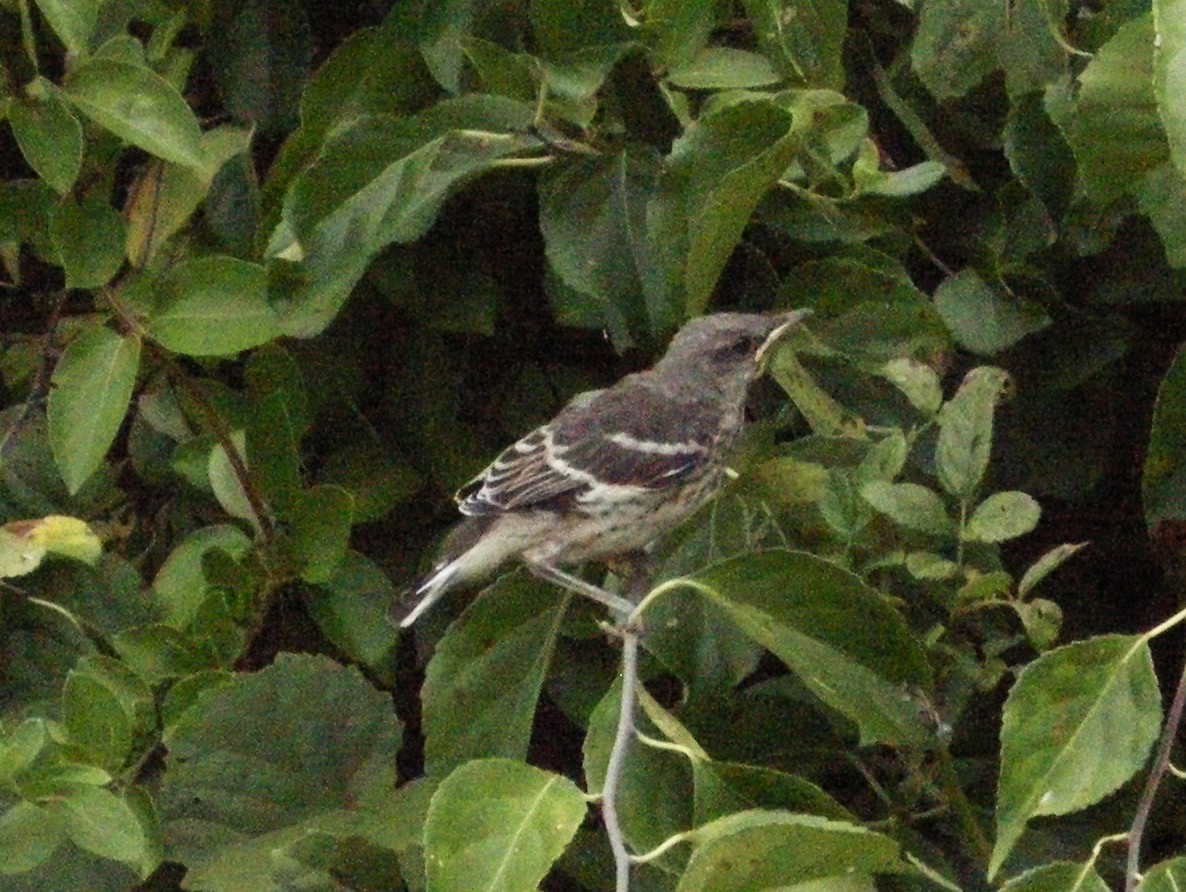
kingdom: Animalia
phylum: Chordata
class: Aves
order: Passeriformes
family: Mimidae
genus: Mimus
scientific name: Mimus polyglottos
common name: Northern mockingbird
